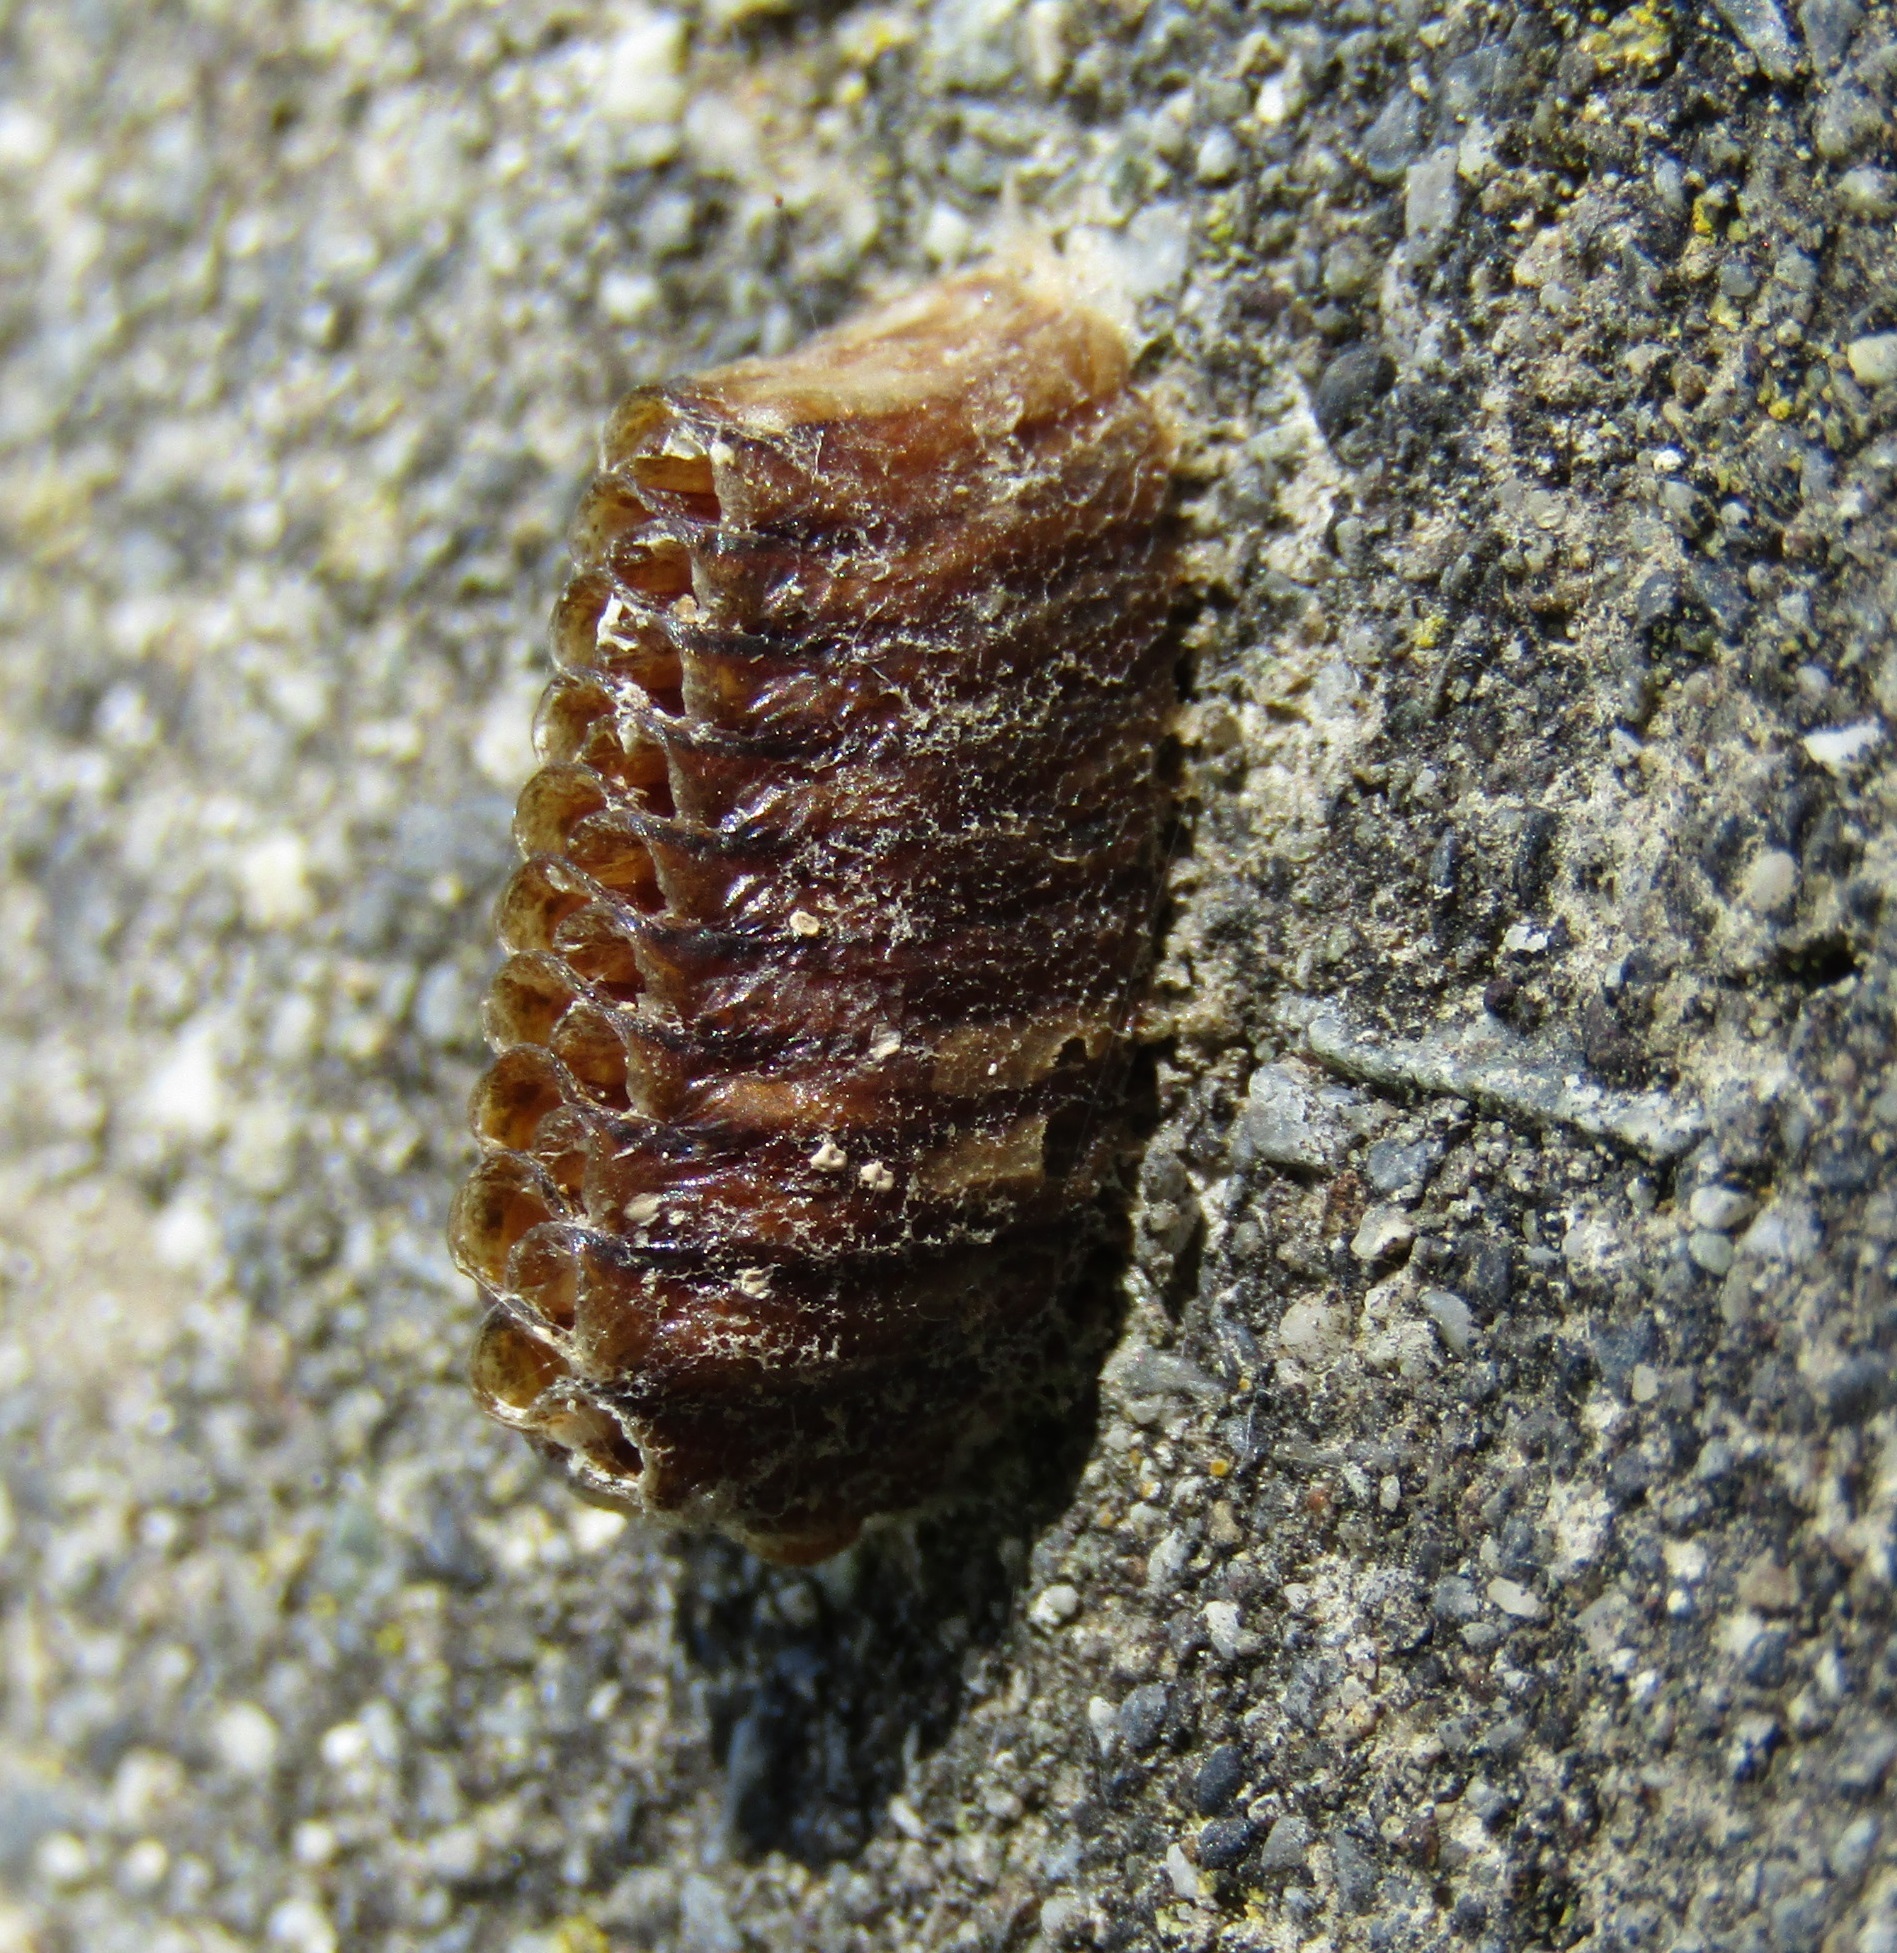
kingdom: Animalia
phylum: Arthropoda
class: Insecta
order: Mantodea
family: Mantidae
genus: Orthodera
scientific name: Orthodera novaezealandiae
